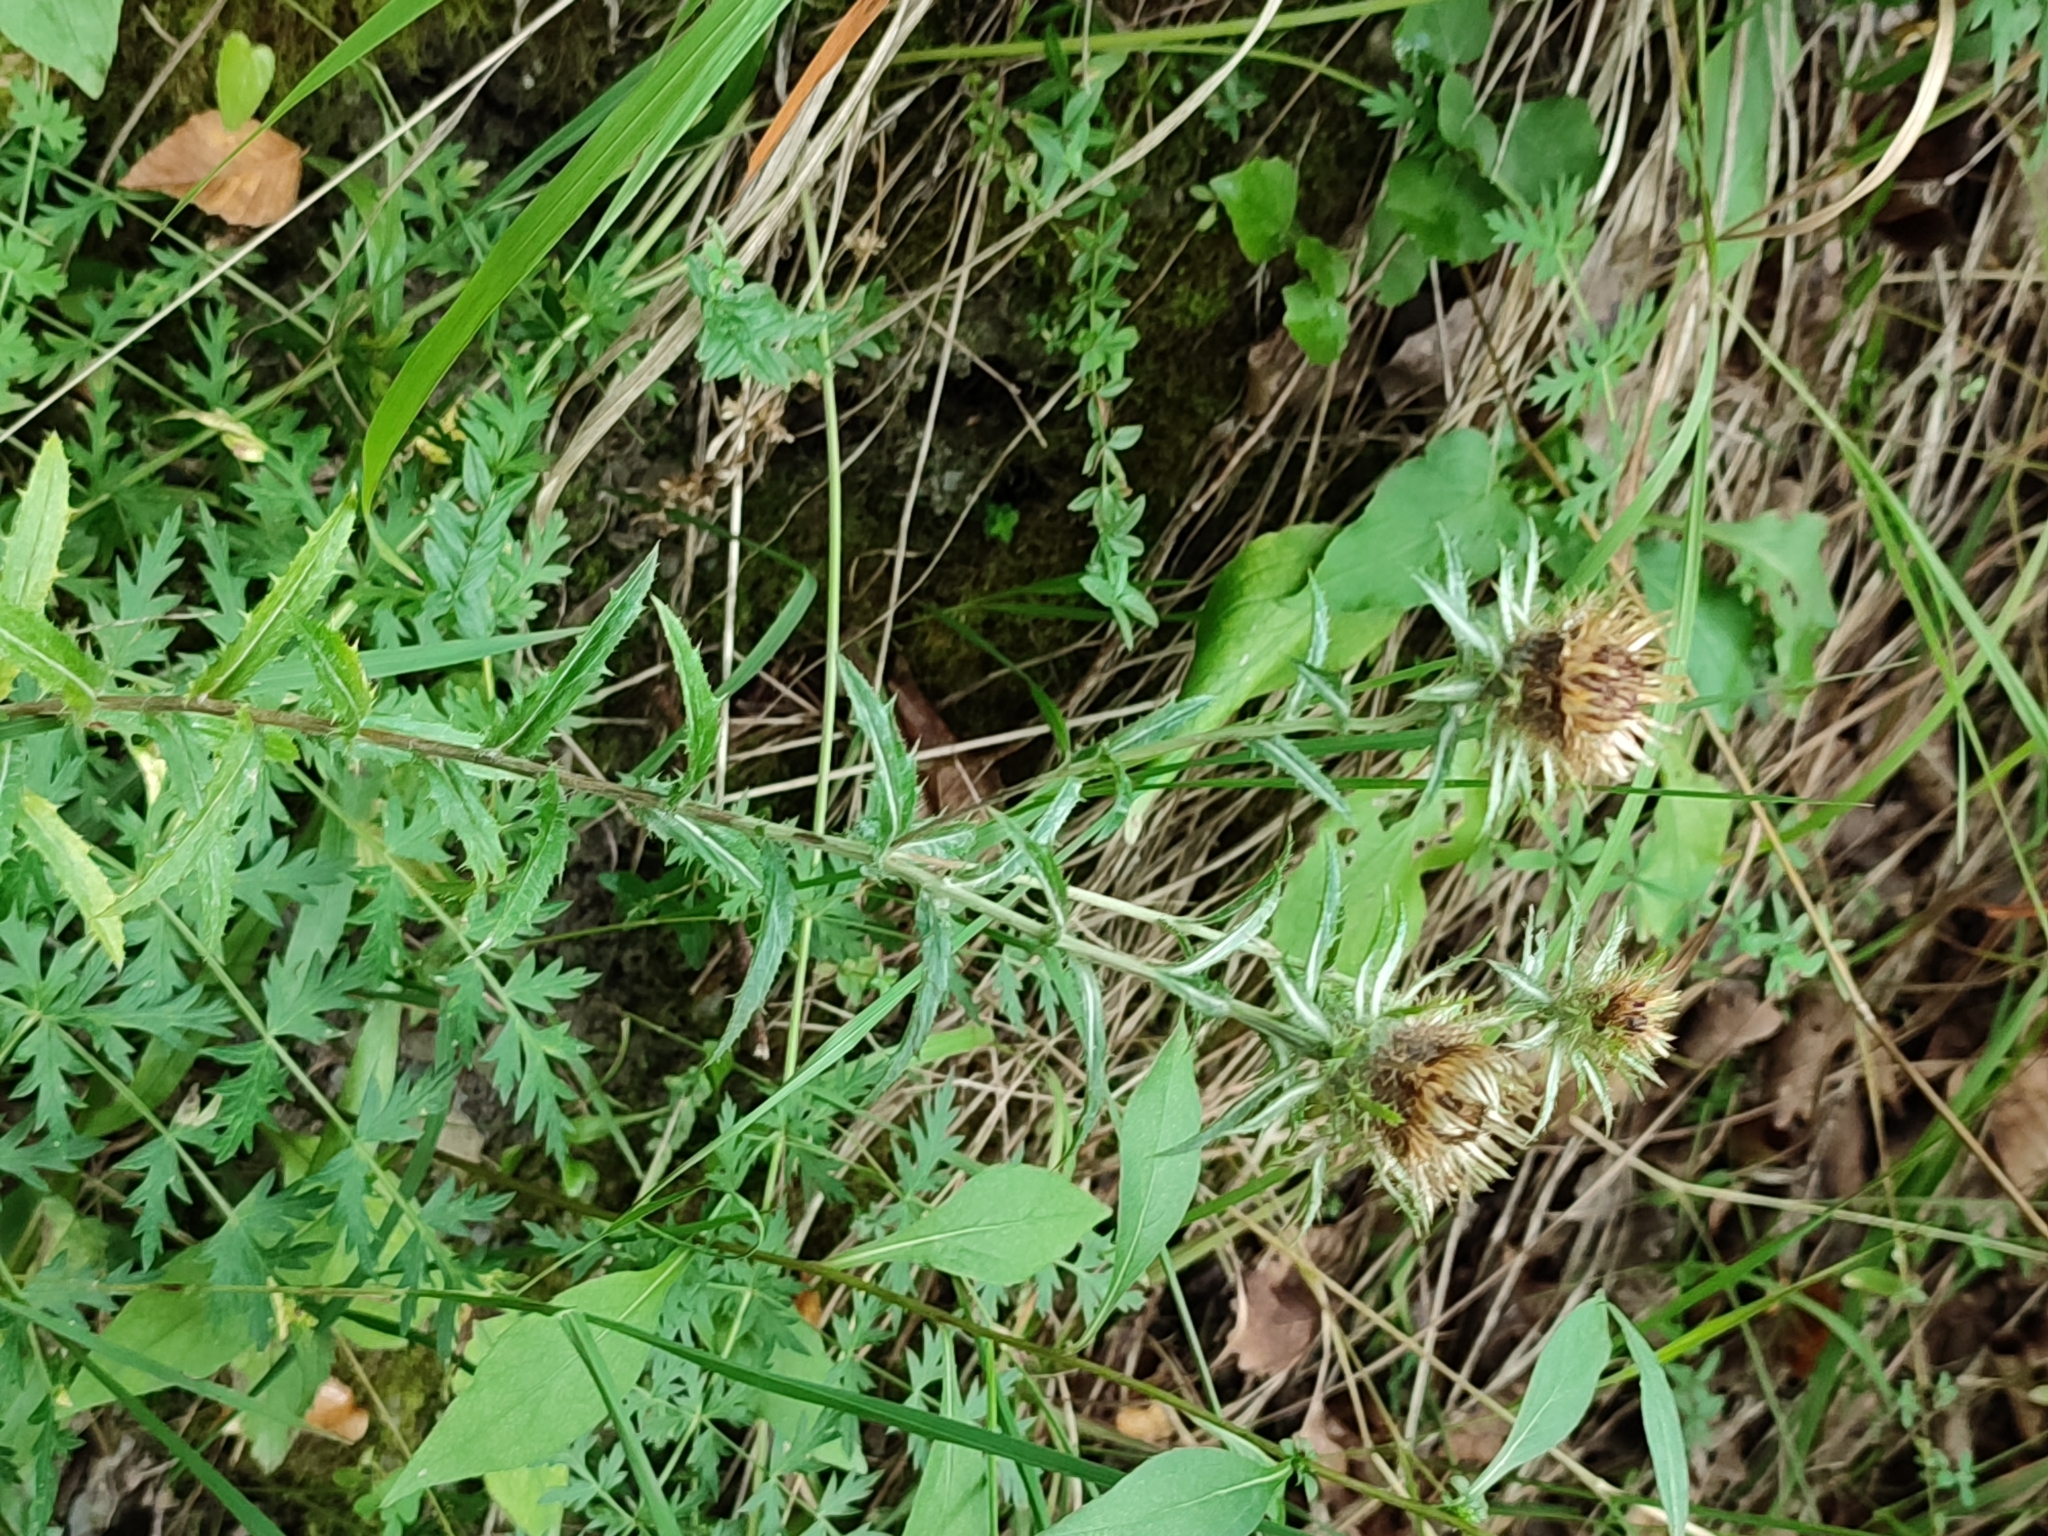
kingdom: Plantae
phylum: Tracheophyta
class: Magnoliopsida
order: Asterales
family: Asteraceae
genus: Carlina
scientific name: Carlina biebersteinii
